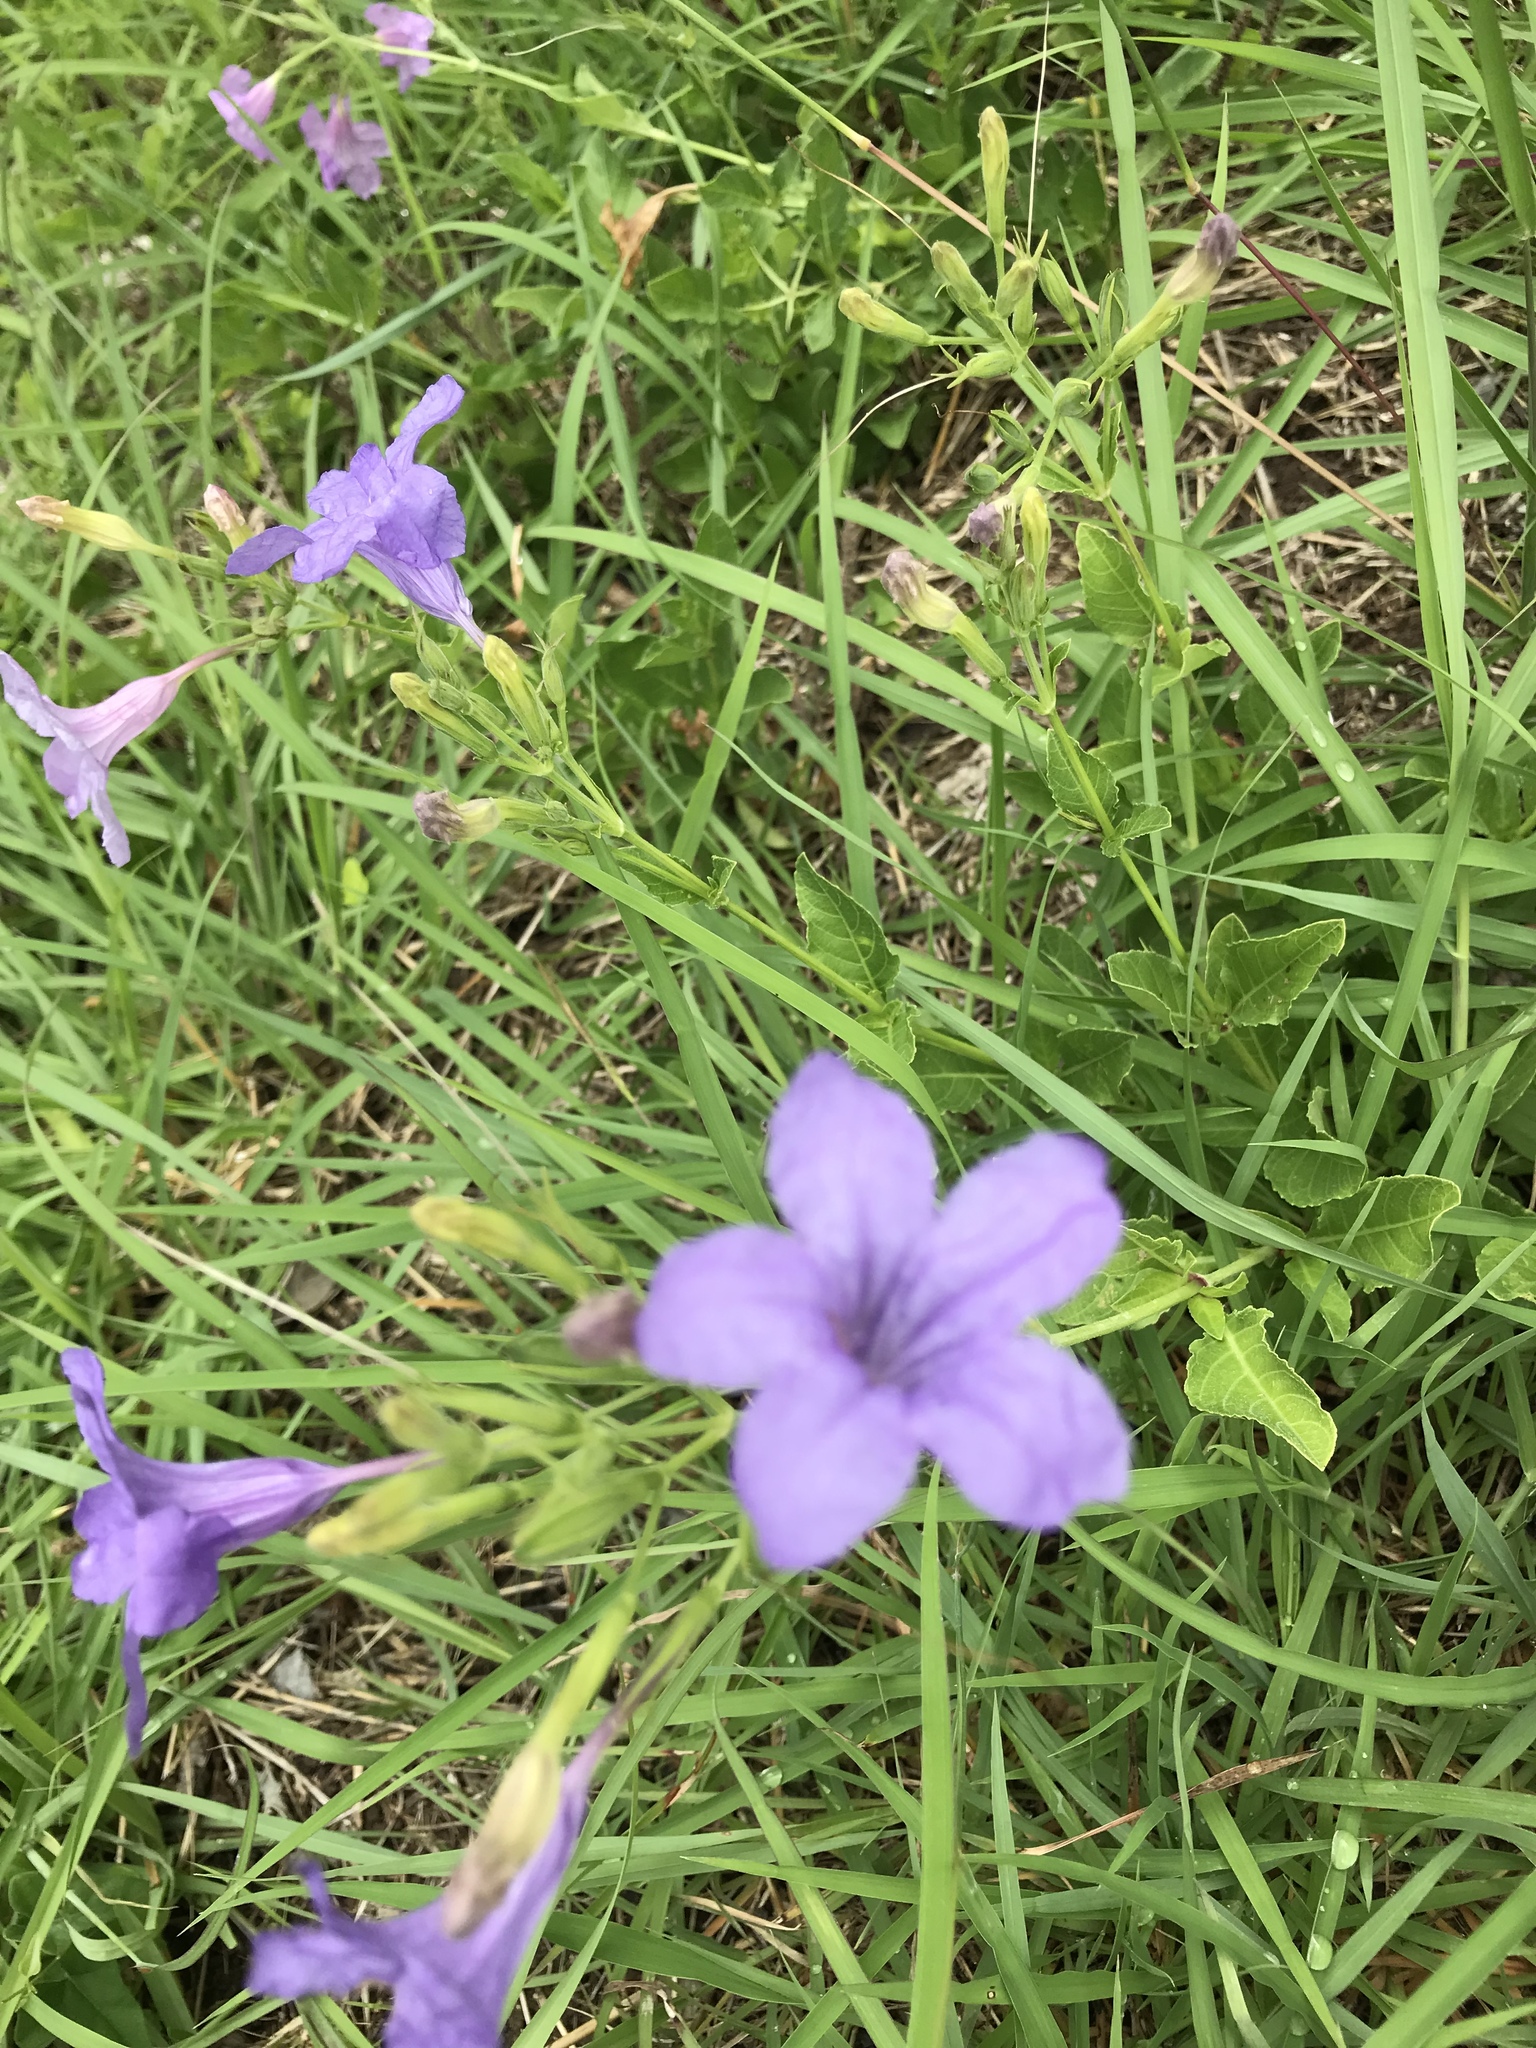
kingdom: Plantae
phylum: Tracheophyta
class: Magnoliopsida
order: Lamiales
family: Acanthaceae
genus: Ruellia
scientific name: Ruellia ciliatiflora
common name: Hairyflower wild petunia
